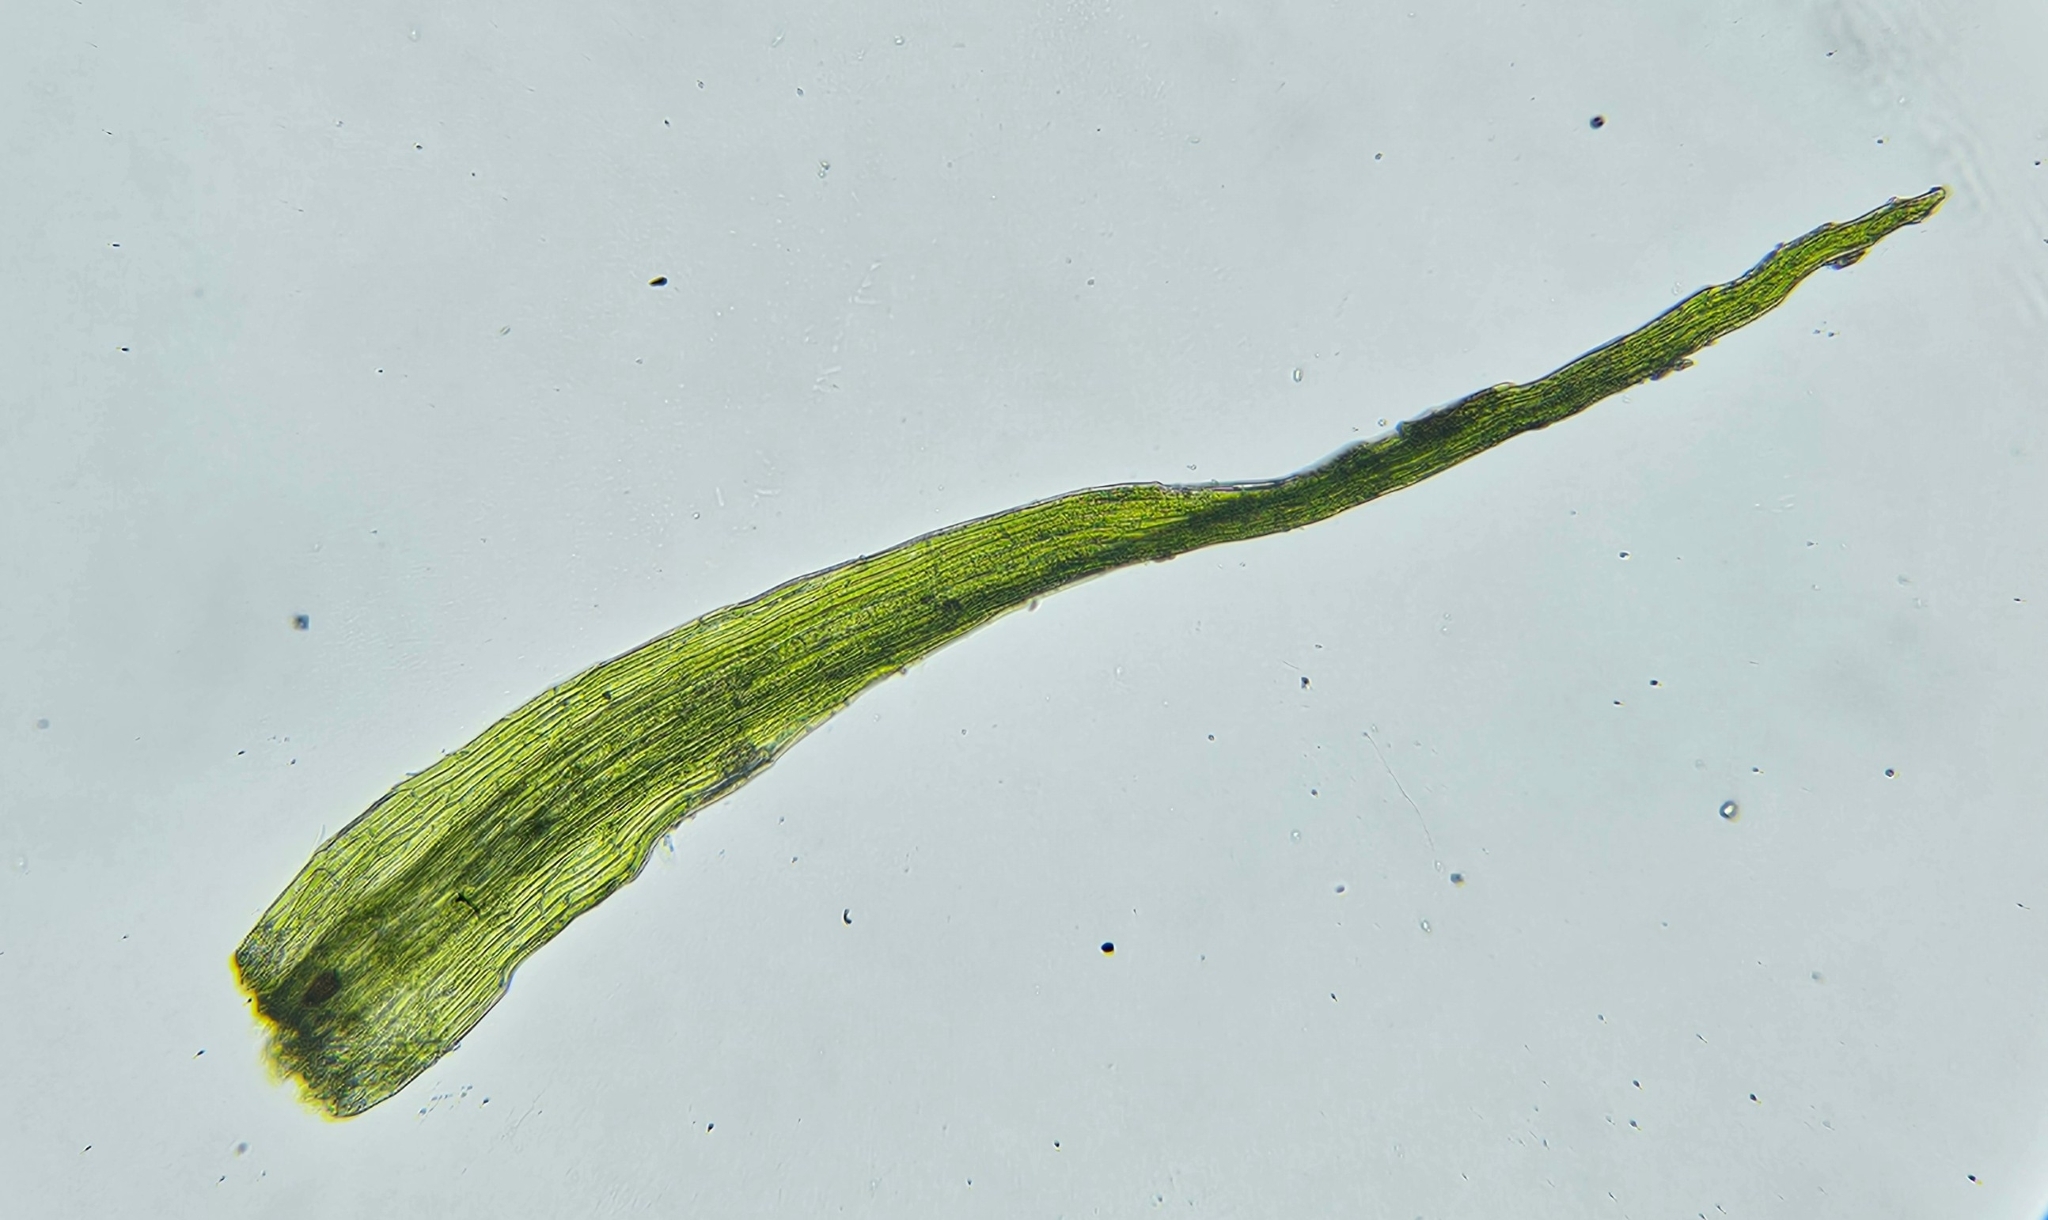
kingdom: Plantae
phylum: Bryophyta
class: Bryopsida
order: Hypnales
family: Brachytheciaceae
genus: Rhynchostegiella
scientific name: Rhynchostegiella tenella
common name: Tender feather-moss
